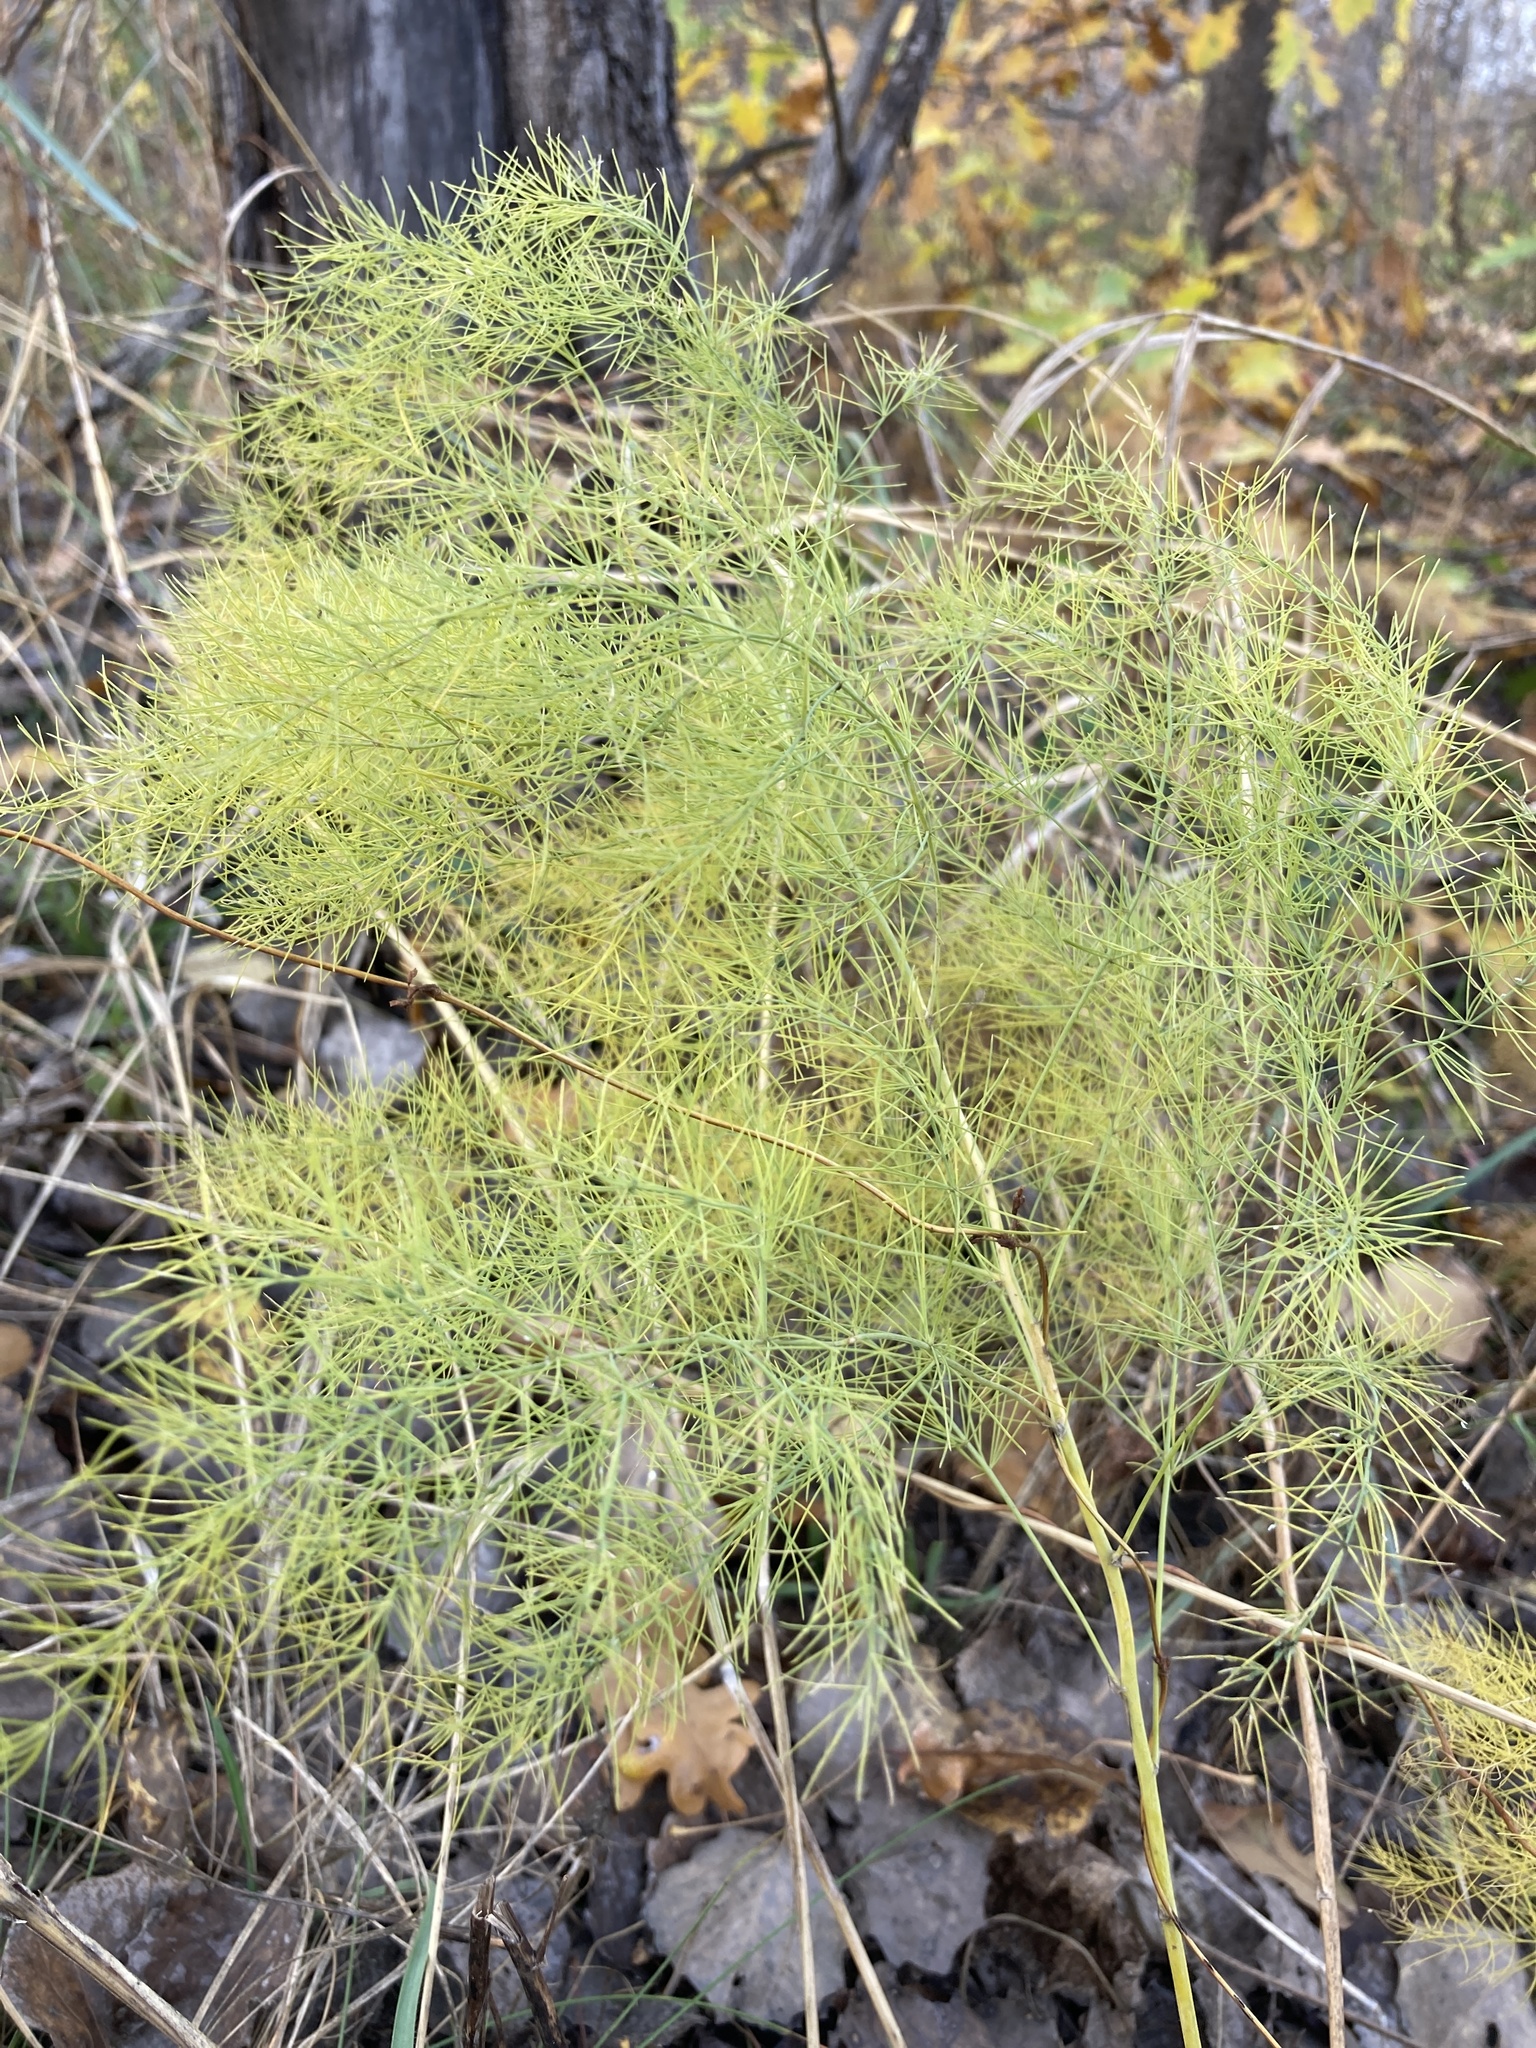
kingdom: Plantae
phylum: Tracheophyta
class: Liliopsida
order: Asparagales
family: Asparagaceae
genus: Asparagus
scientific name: Asparagus officinalis
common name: Garden asparagus
